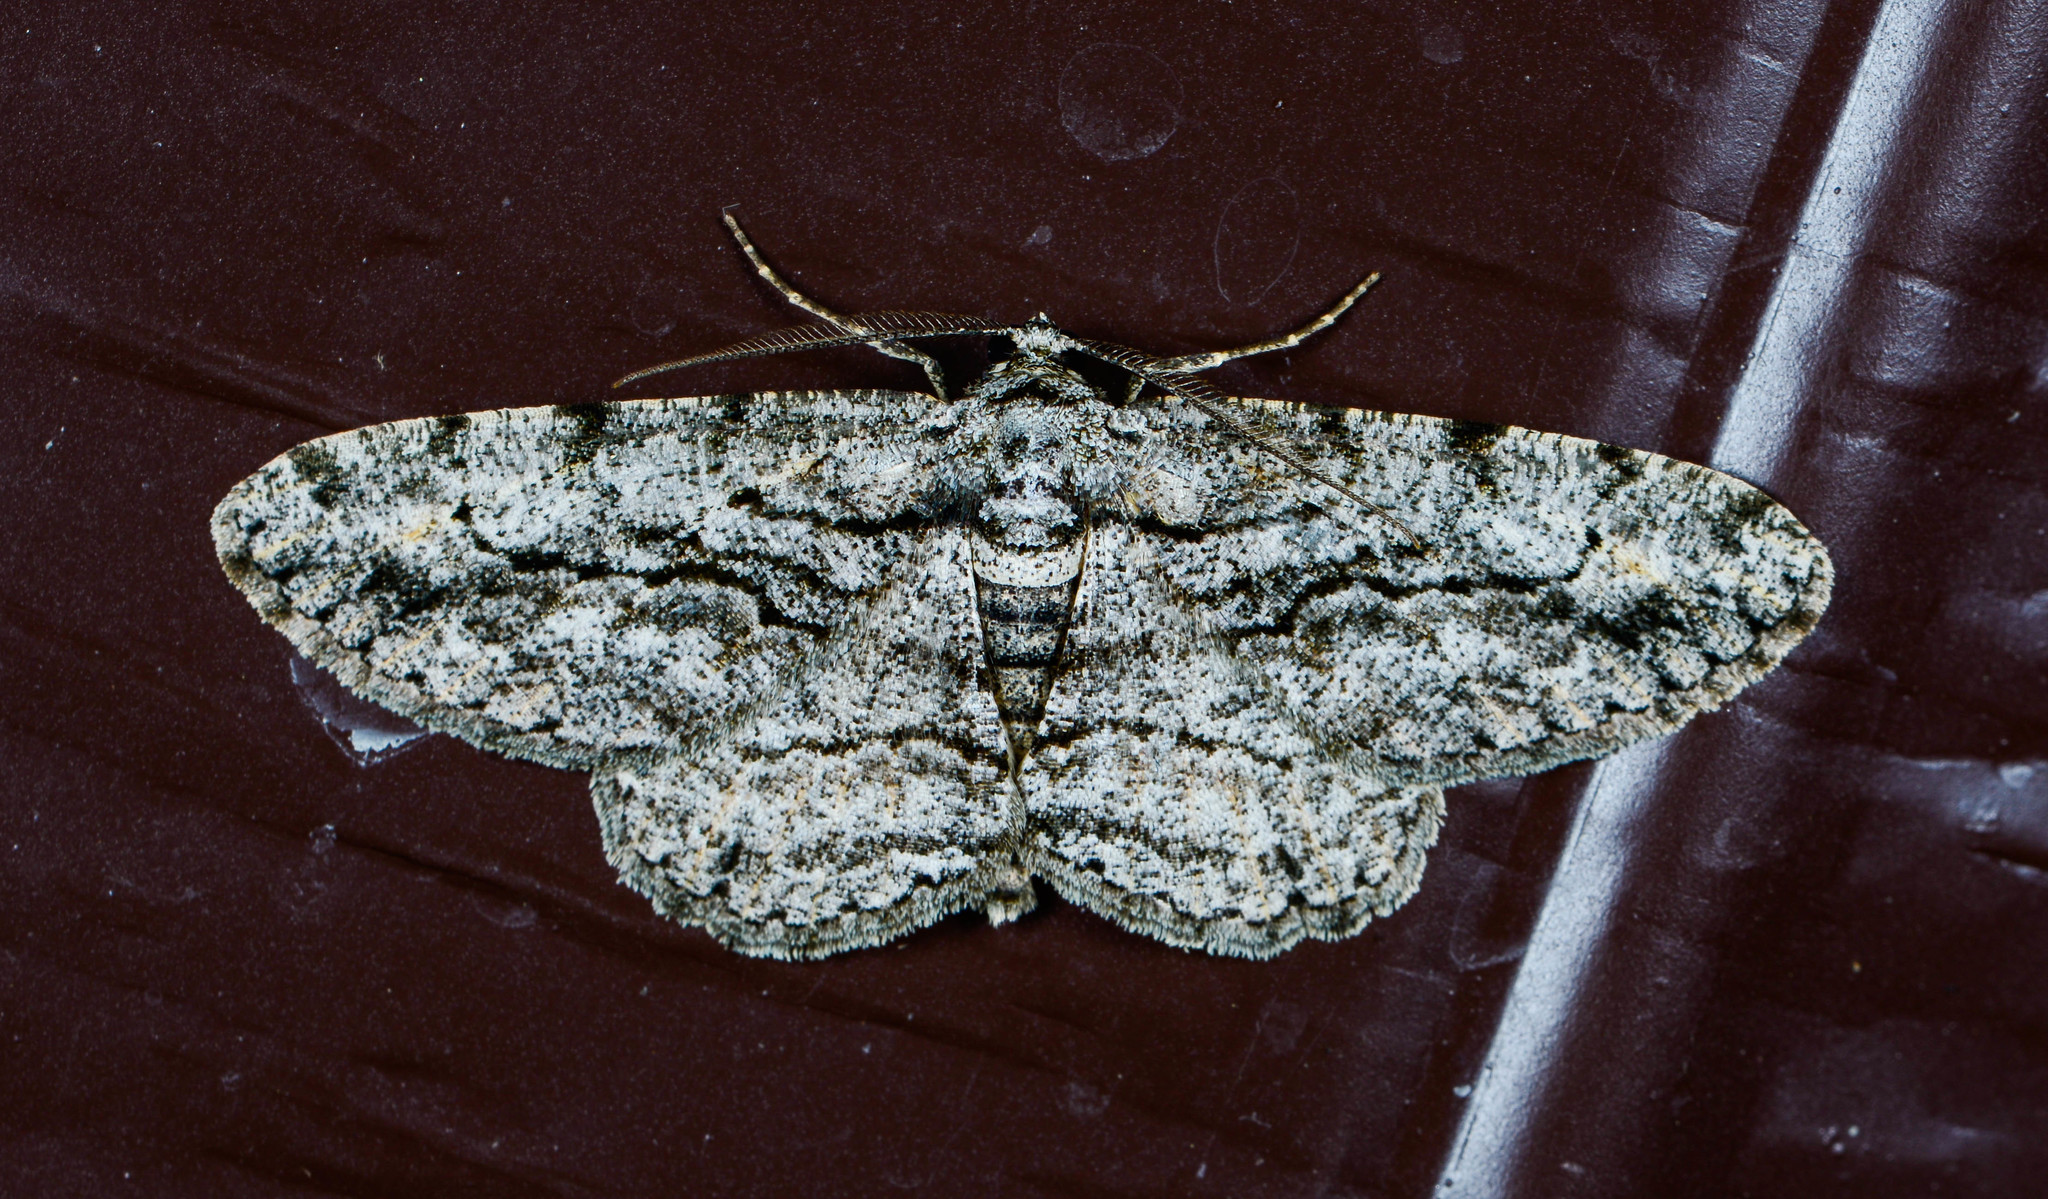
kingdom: Animalia
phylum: Arthropoda
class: Insecta
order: Lepidoptera
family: Geometridae
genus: Anavitrinella
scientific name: Anavitrinella pampinaria
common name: Common gray
